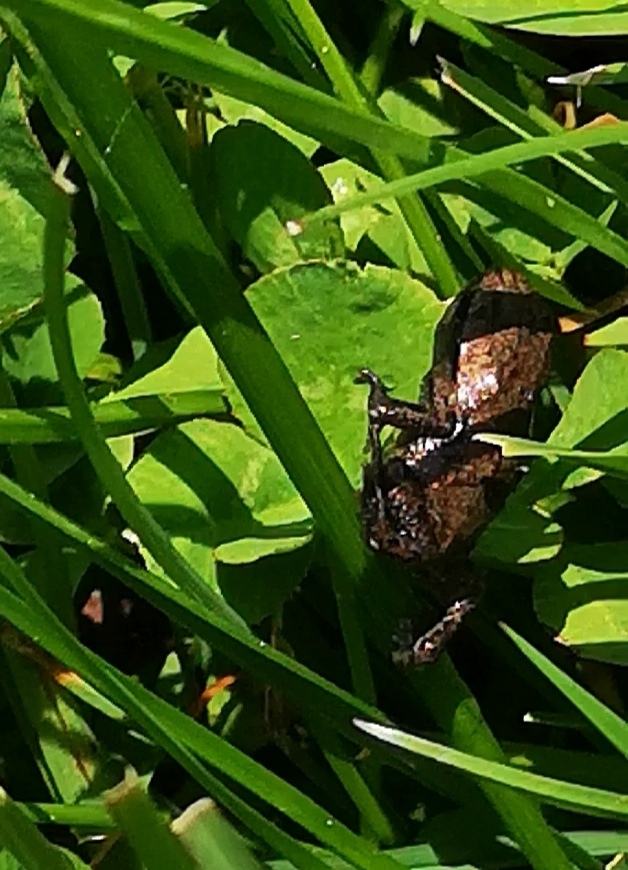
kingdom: Animalia
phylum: Chordata
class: Amphibia
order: Anura
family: Bufonidae
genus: Bufo
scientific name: Bufo bufo
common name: Common toad
